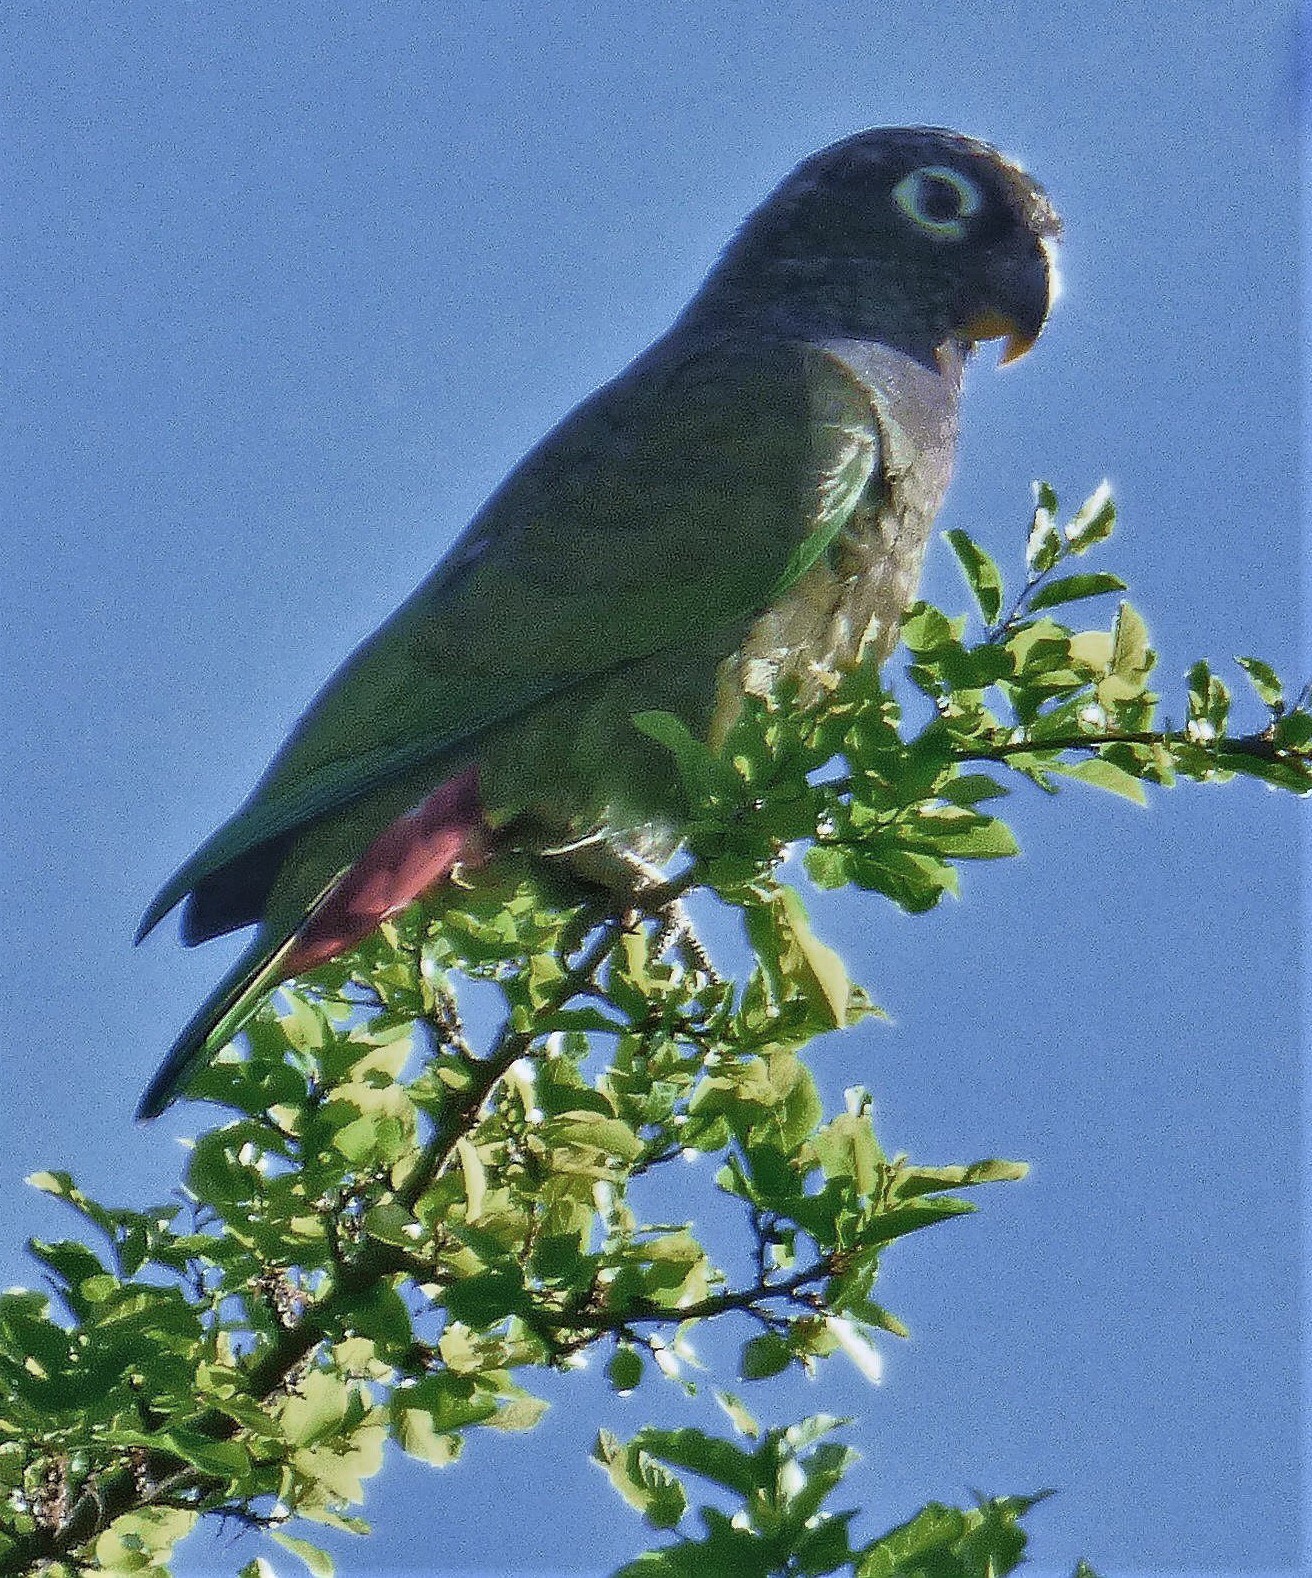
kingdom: Animalia
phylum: Chordata
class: Aves
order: Psittaciformes
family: Psittacidae
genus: Pionus
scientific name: Pionus maximiliani
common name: Scaly-headed parrot
